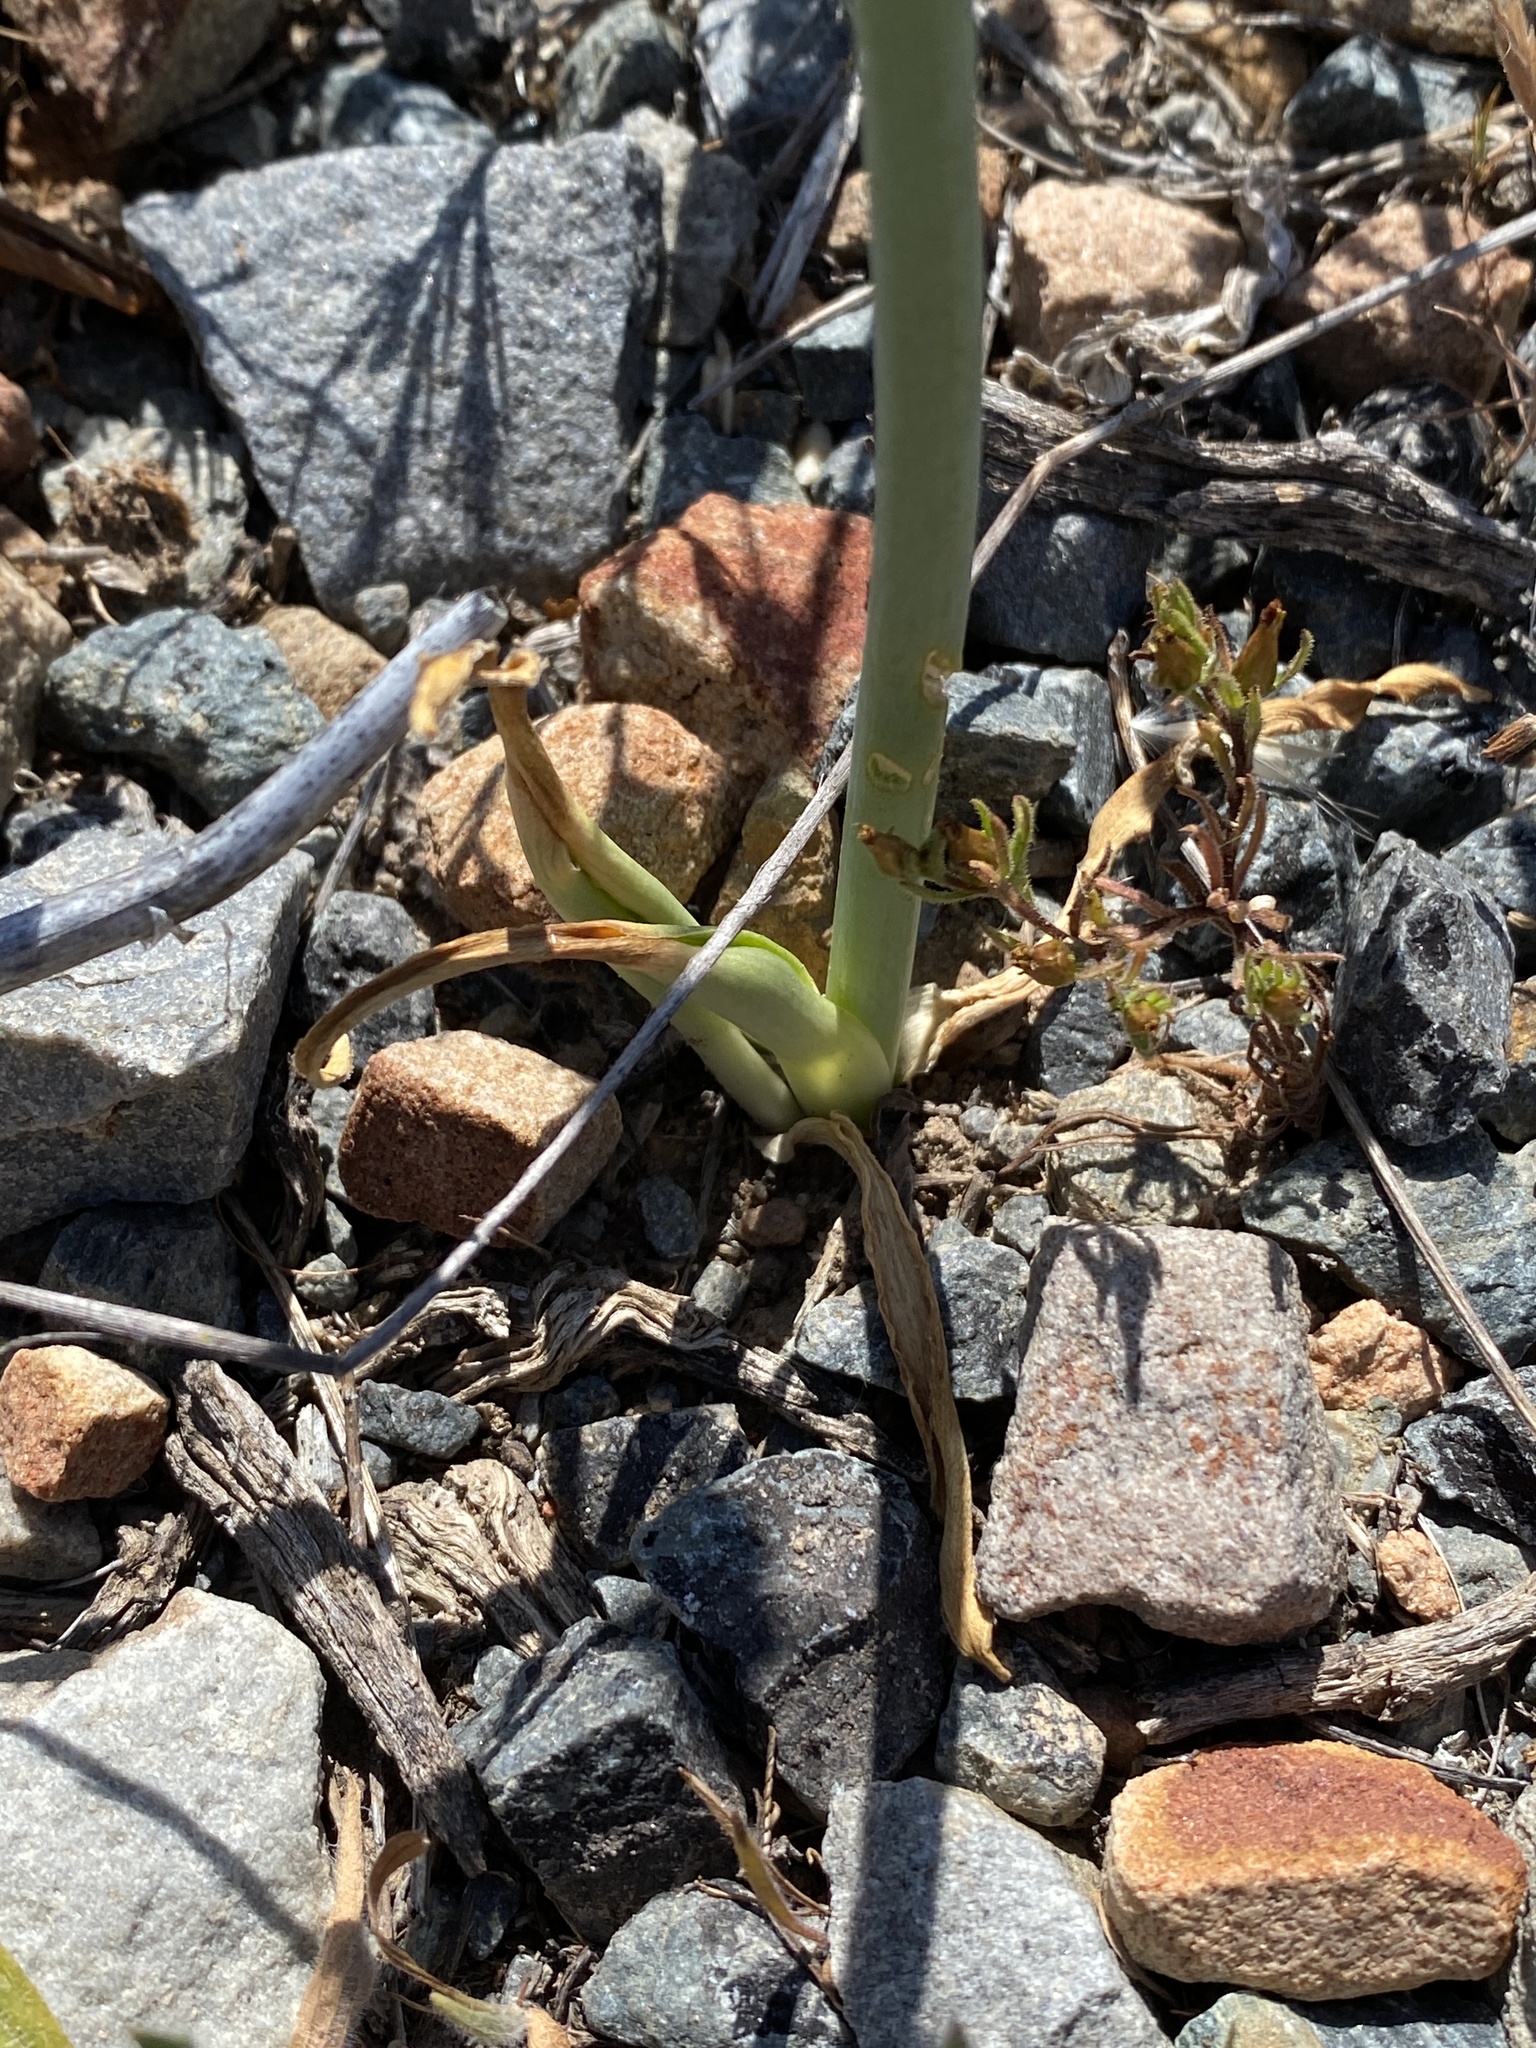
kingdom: Plantae
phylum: Tracheophyta
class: Liliopsida
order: Asparagales
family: Asparagaceae
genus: Ornithogalum
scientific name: Ornithogalum dubium
